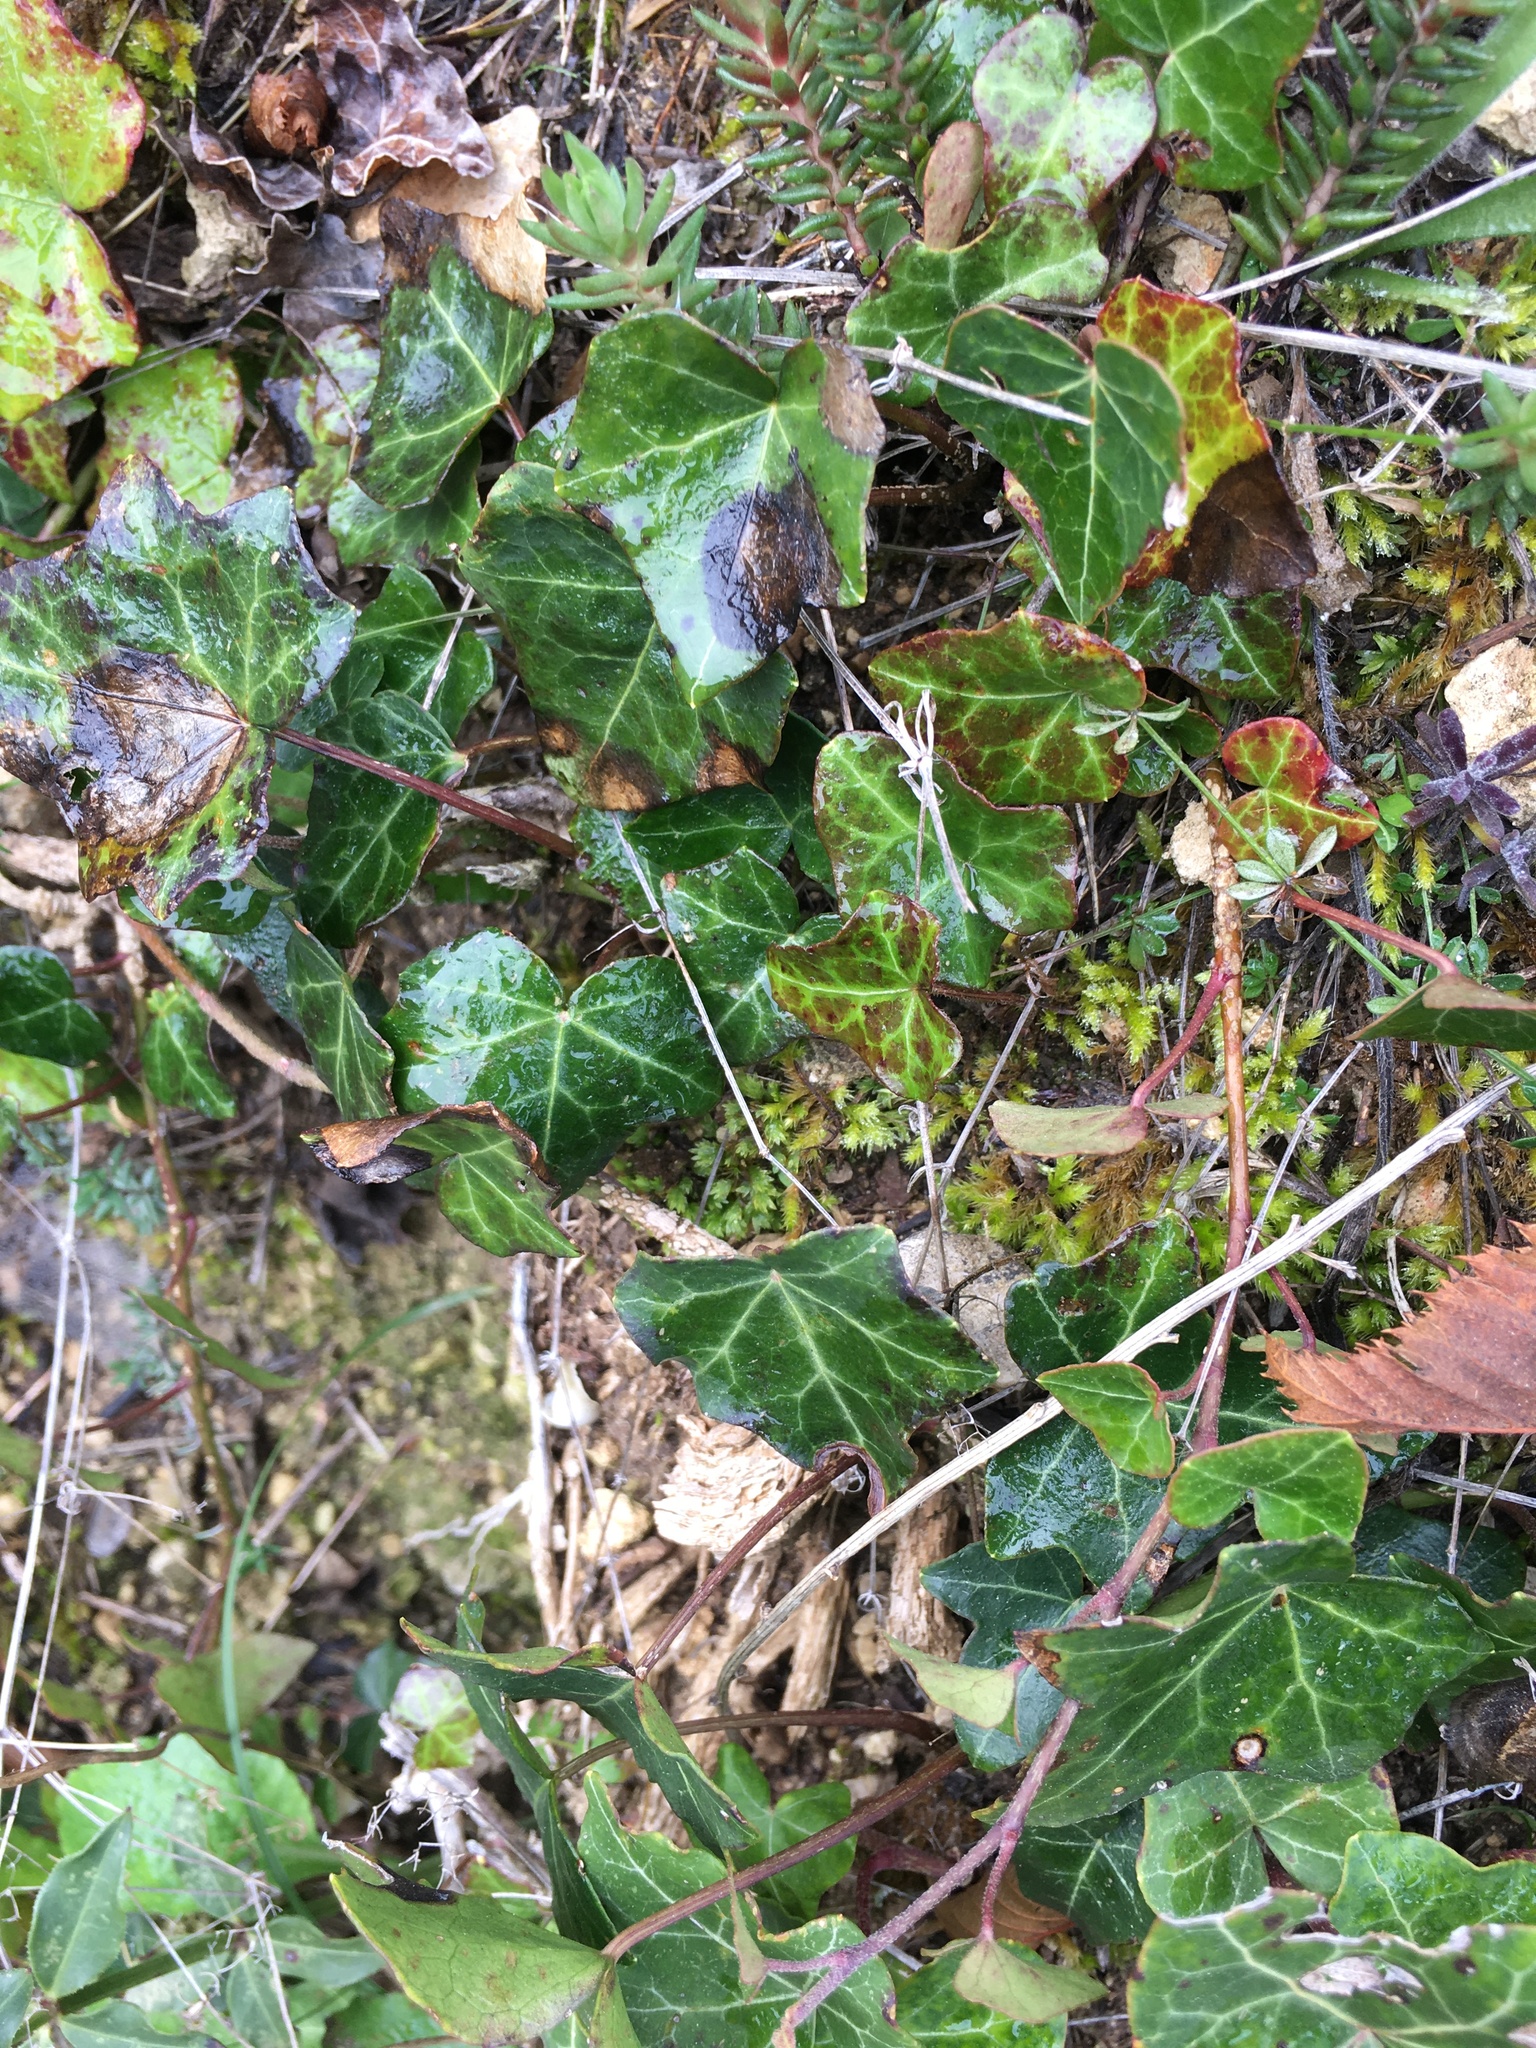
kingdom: Plantae
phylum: Tracheophyta
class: Magnoliopsida
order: Apiales
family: Araliaceae
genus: Hedera
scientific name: Hedera helix
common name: Ivy
